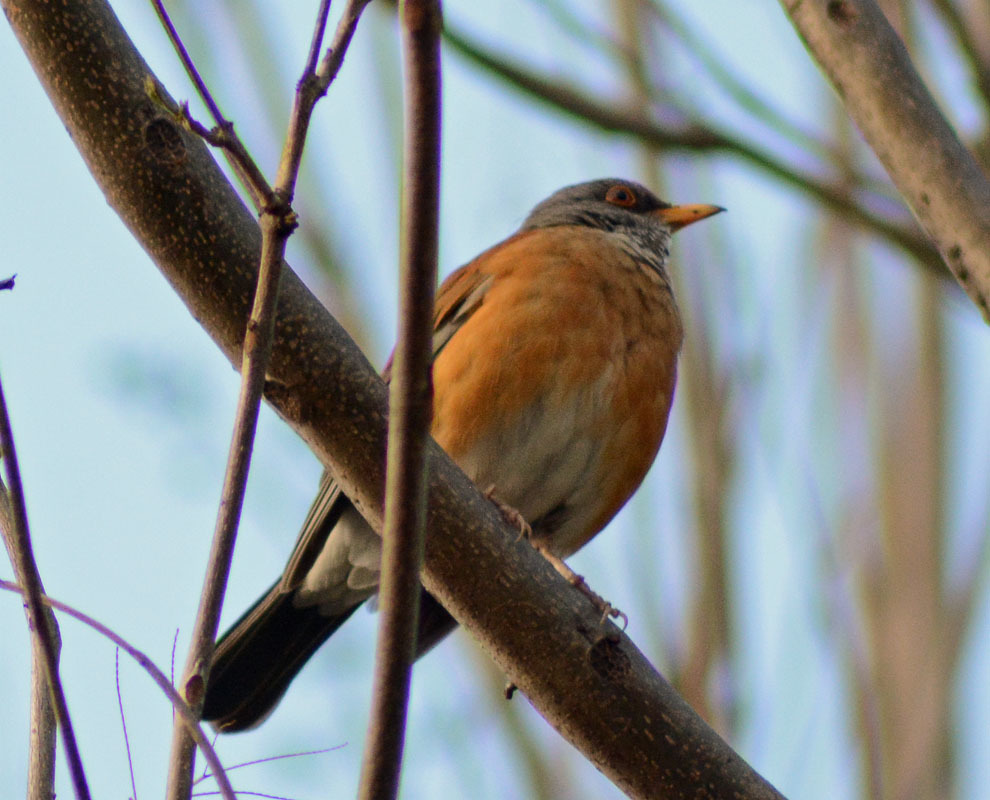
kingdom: Animalia
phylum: Chordata
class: Aves
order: Passeriformes
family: Turdidae
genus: Turdus
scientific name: Turdus rufopalliatus
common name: Rufous-backed robin
